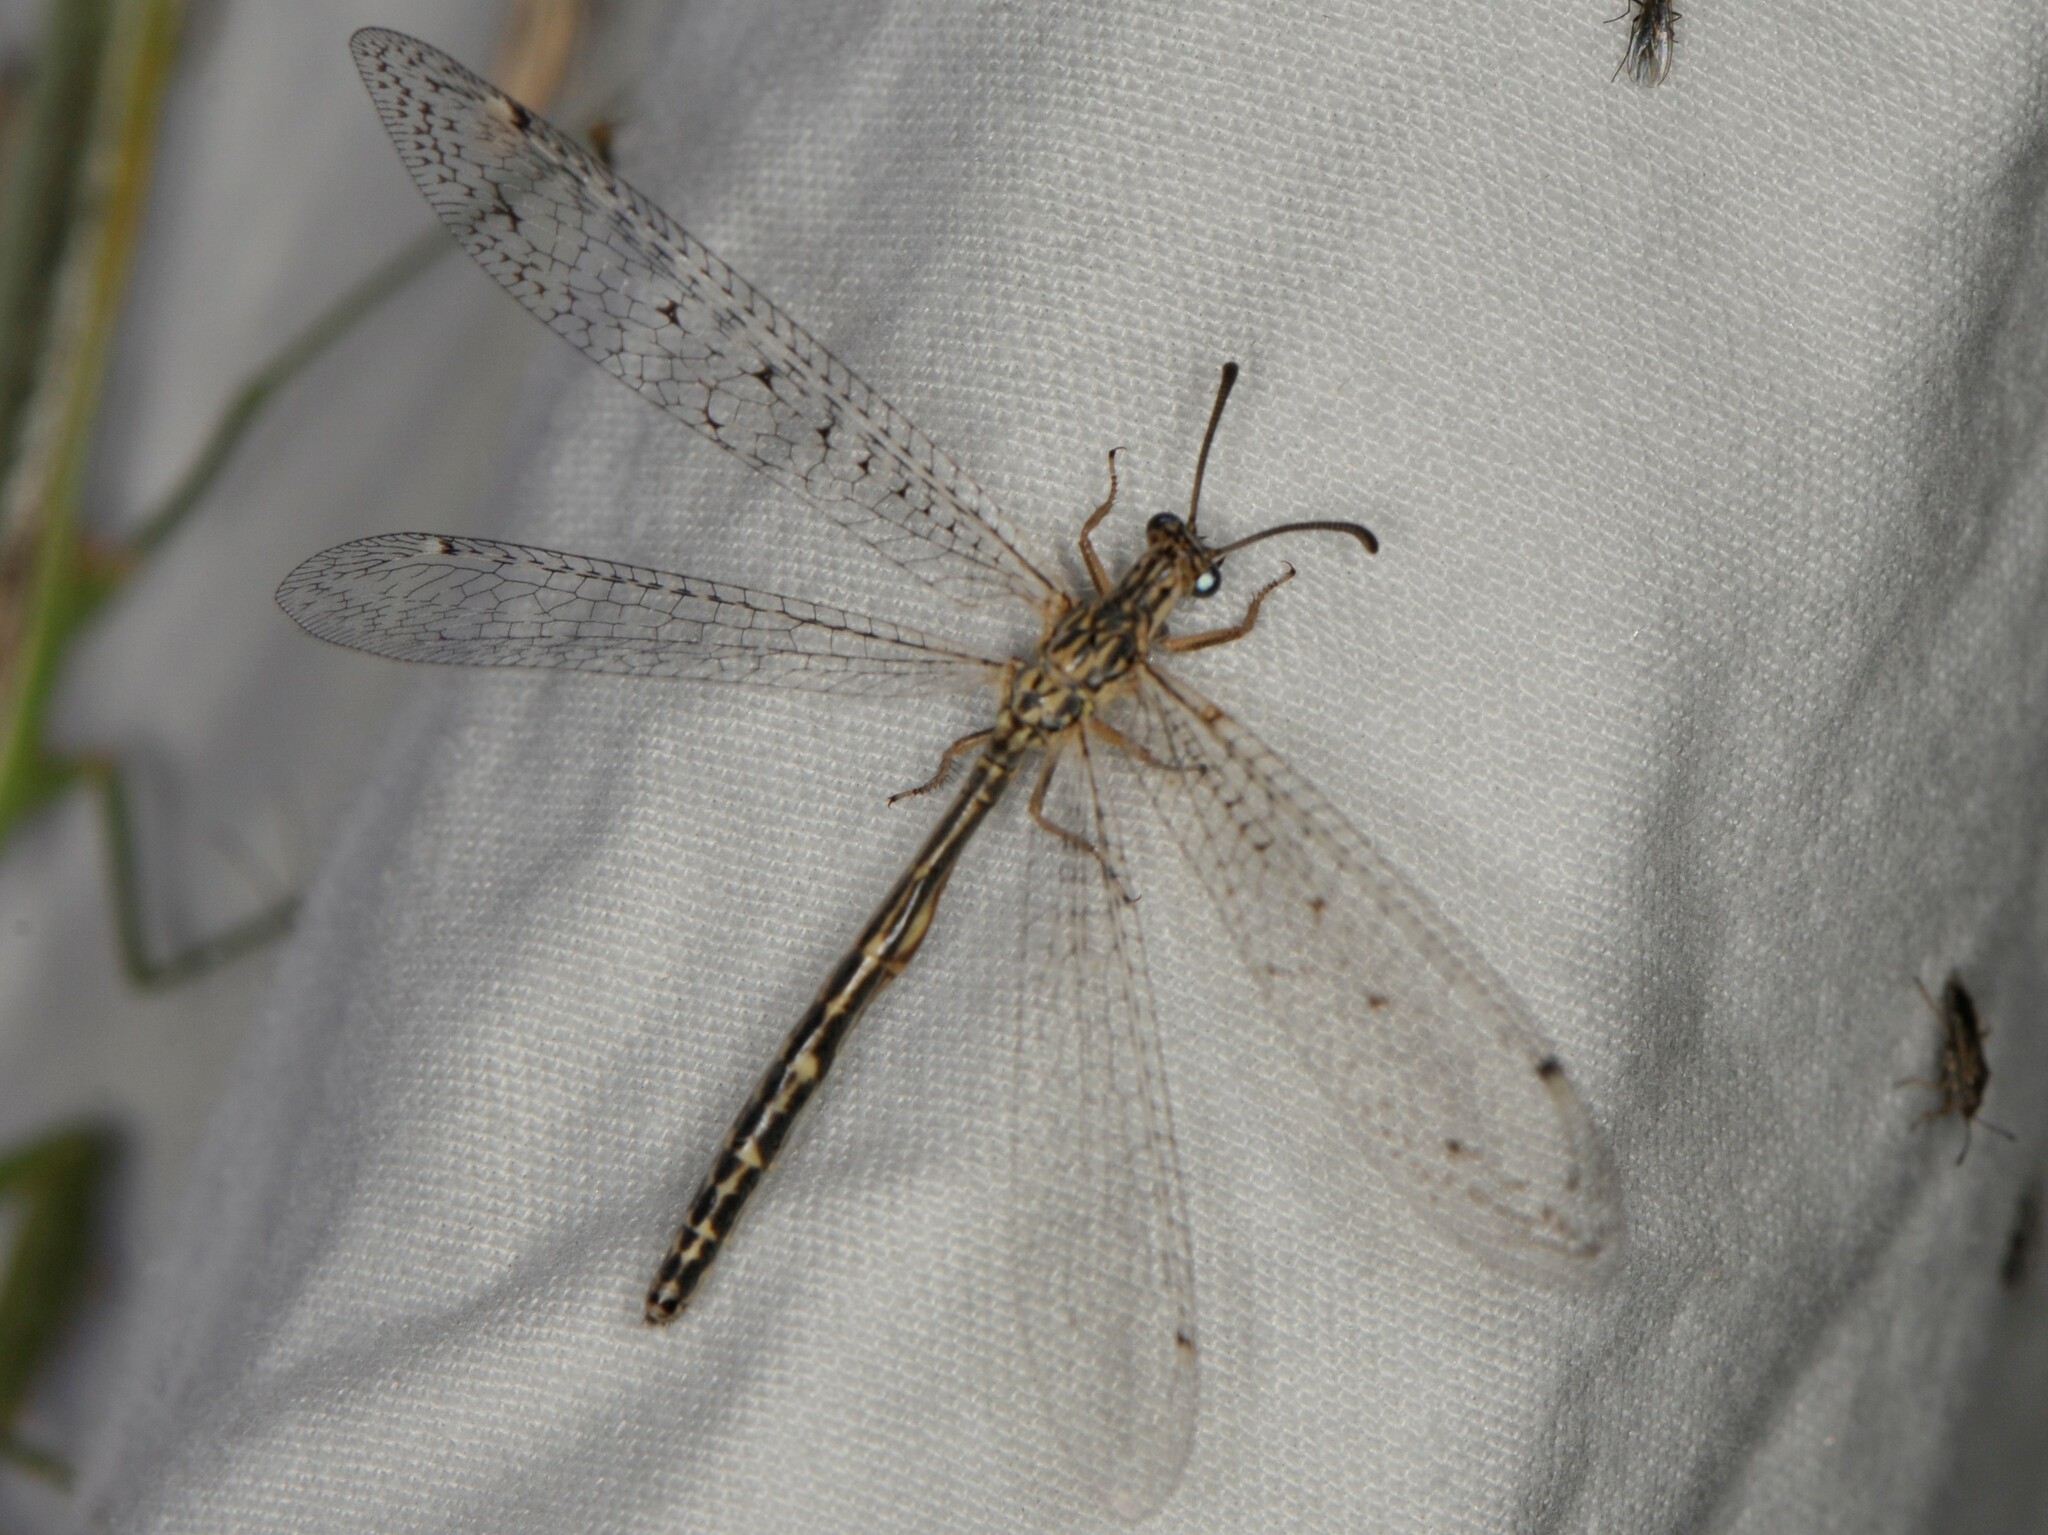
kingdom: Animalia
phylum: Arthropoda
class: Insecta
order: Neuroptera
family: Myrmeleontidae
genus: Scotoleon
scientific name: Scotoleon
